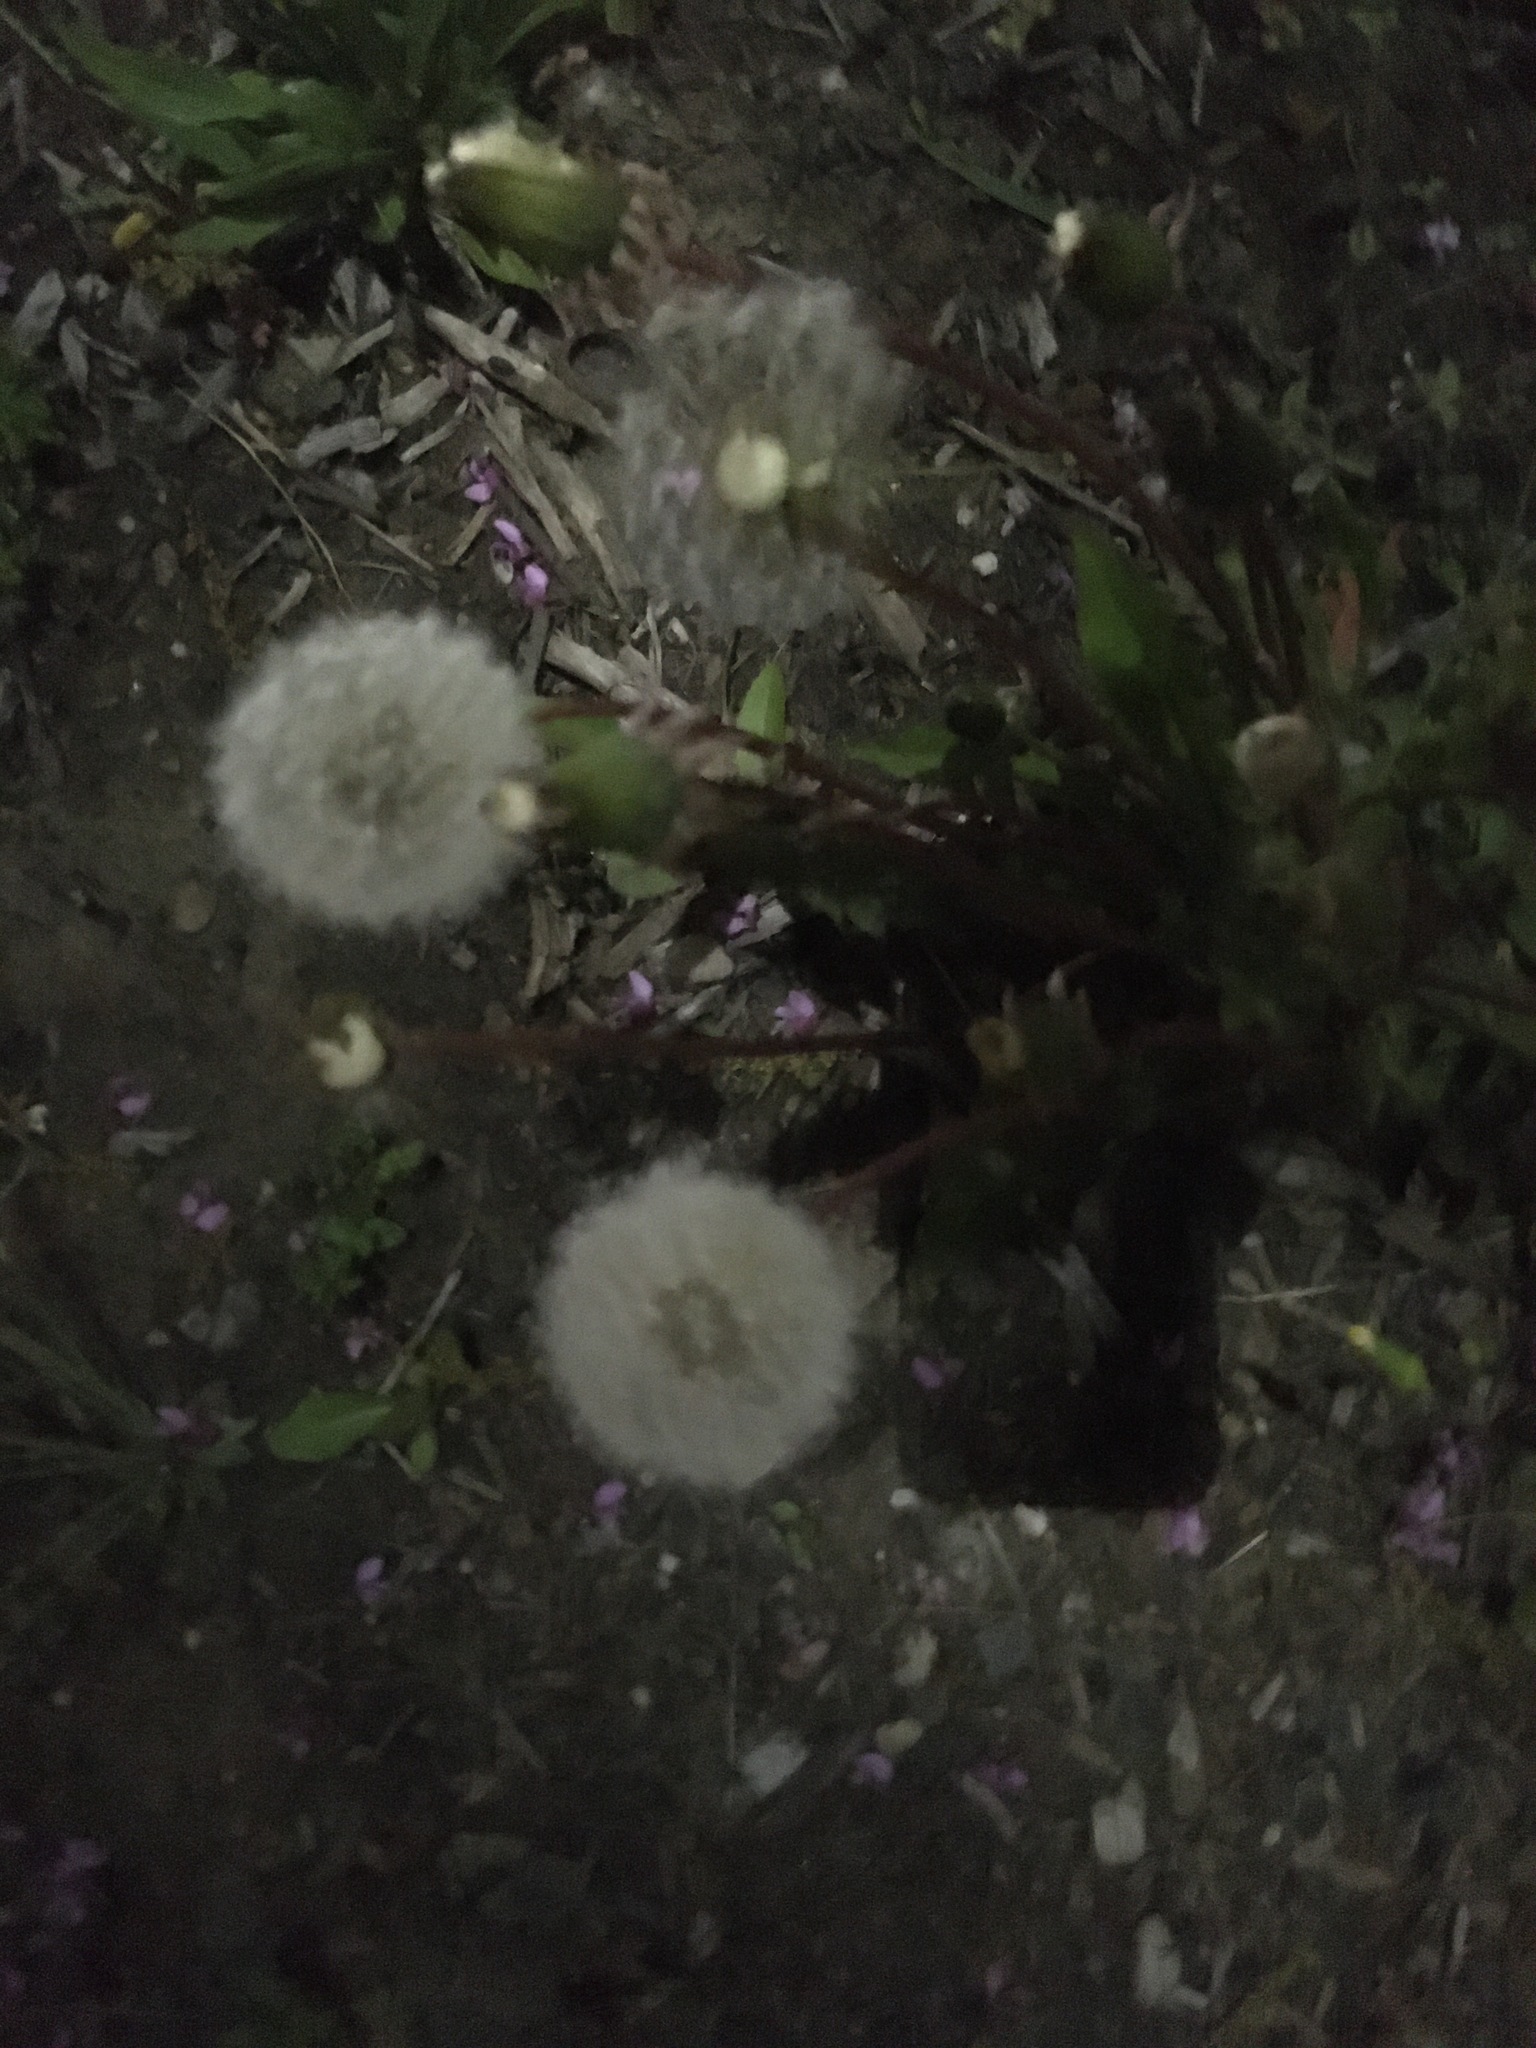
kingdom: Plantae
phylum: Tracheophyta
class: Magnoliopsida
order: Asterales
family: Asteraceae
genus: Taraxacum
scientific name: Taraxacum officinale
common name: Common dandelion
